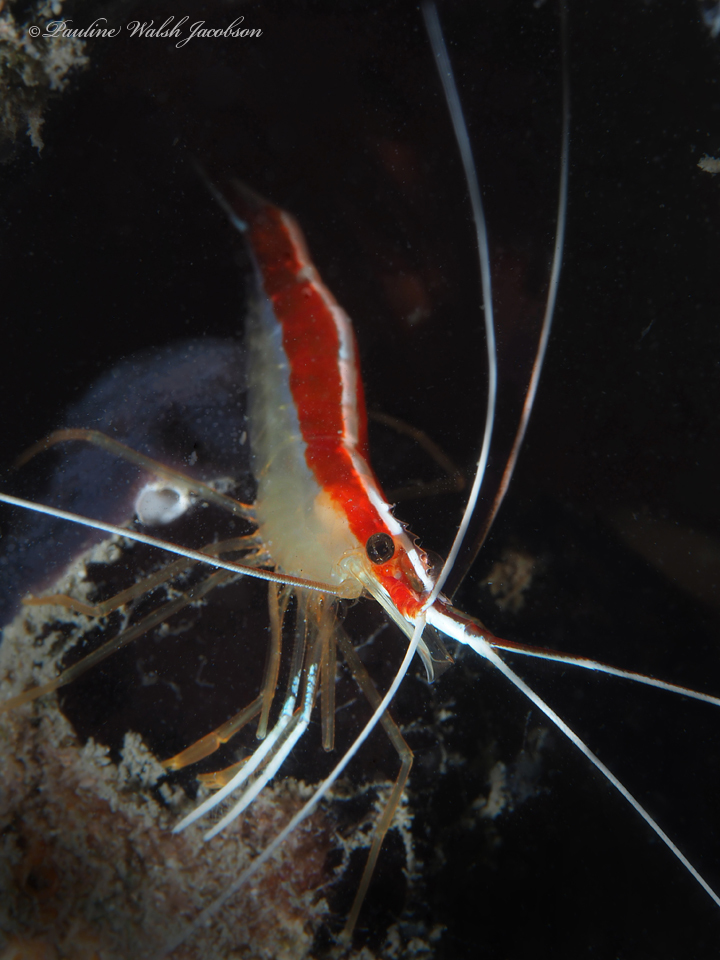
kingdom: Animalia
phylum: Arthropoda
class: Malacostraca
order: Decapoda
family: Lysmatidae
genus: Lysmata
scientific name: Lysmata grabhami
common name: Scarlet-striped cleaning shrimp
